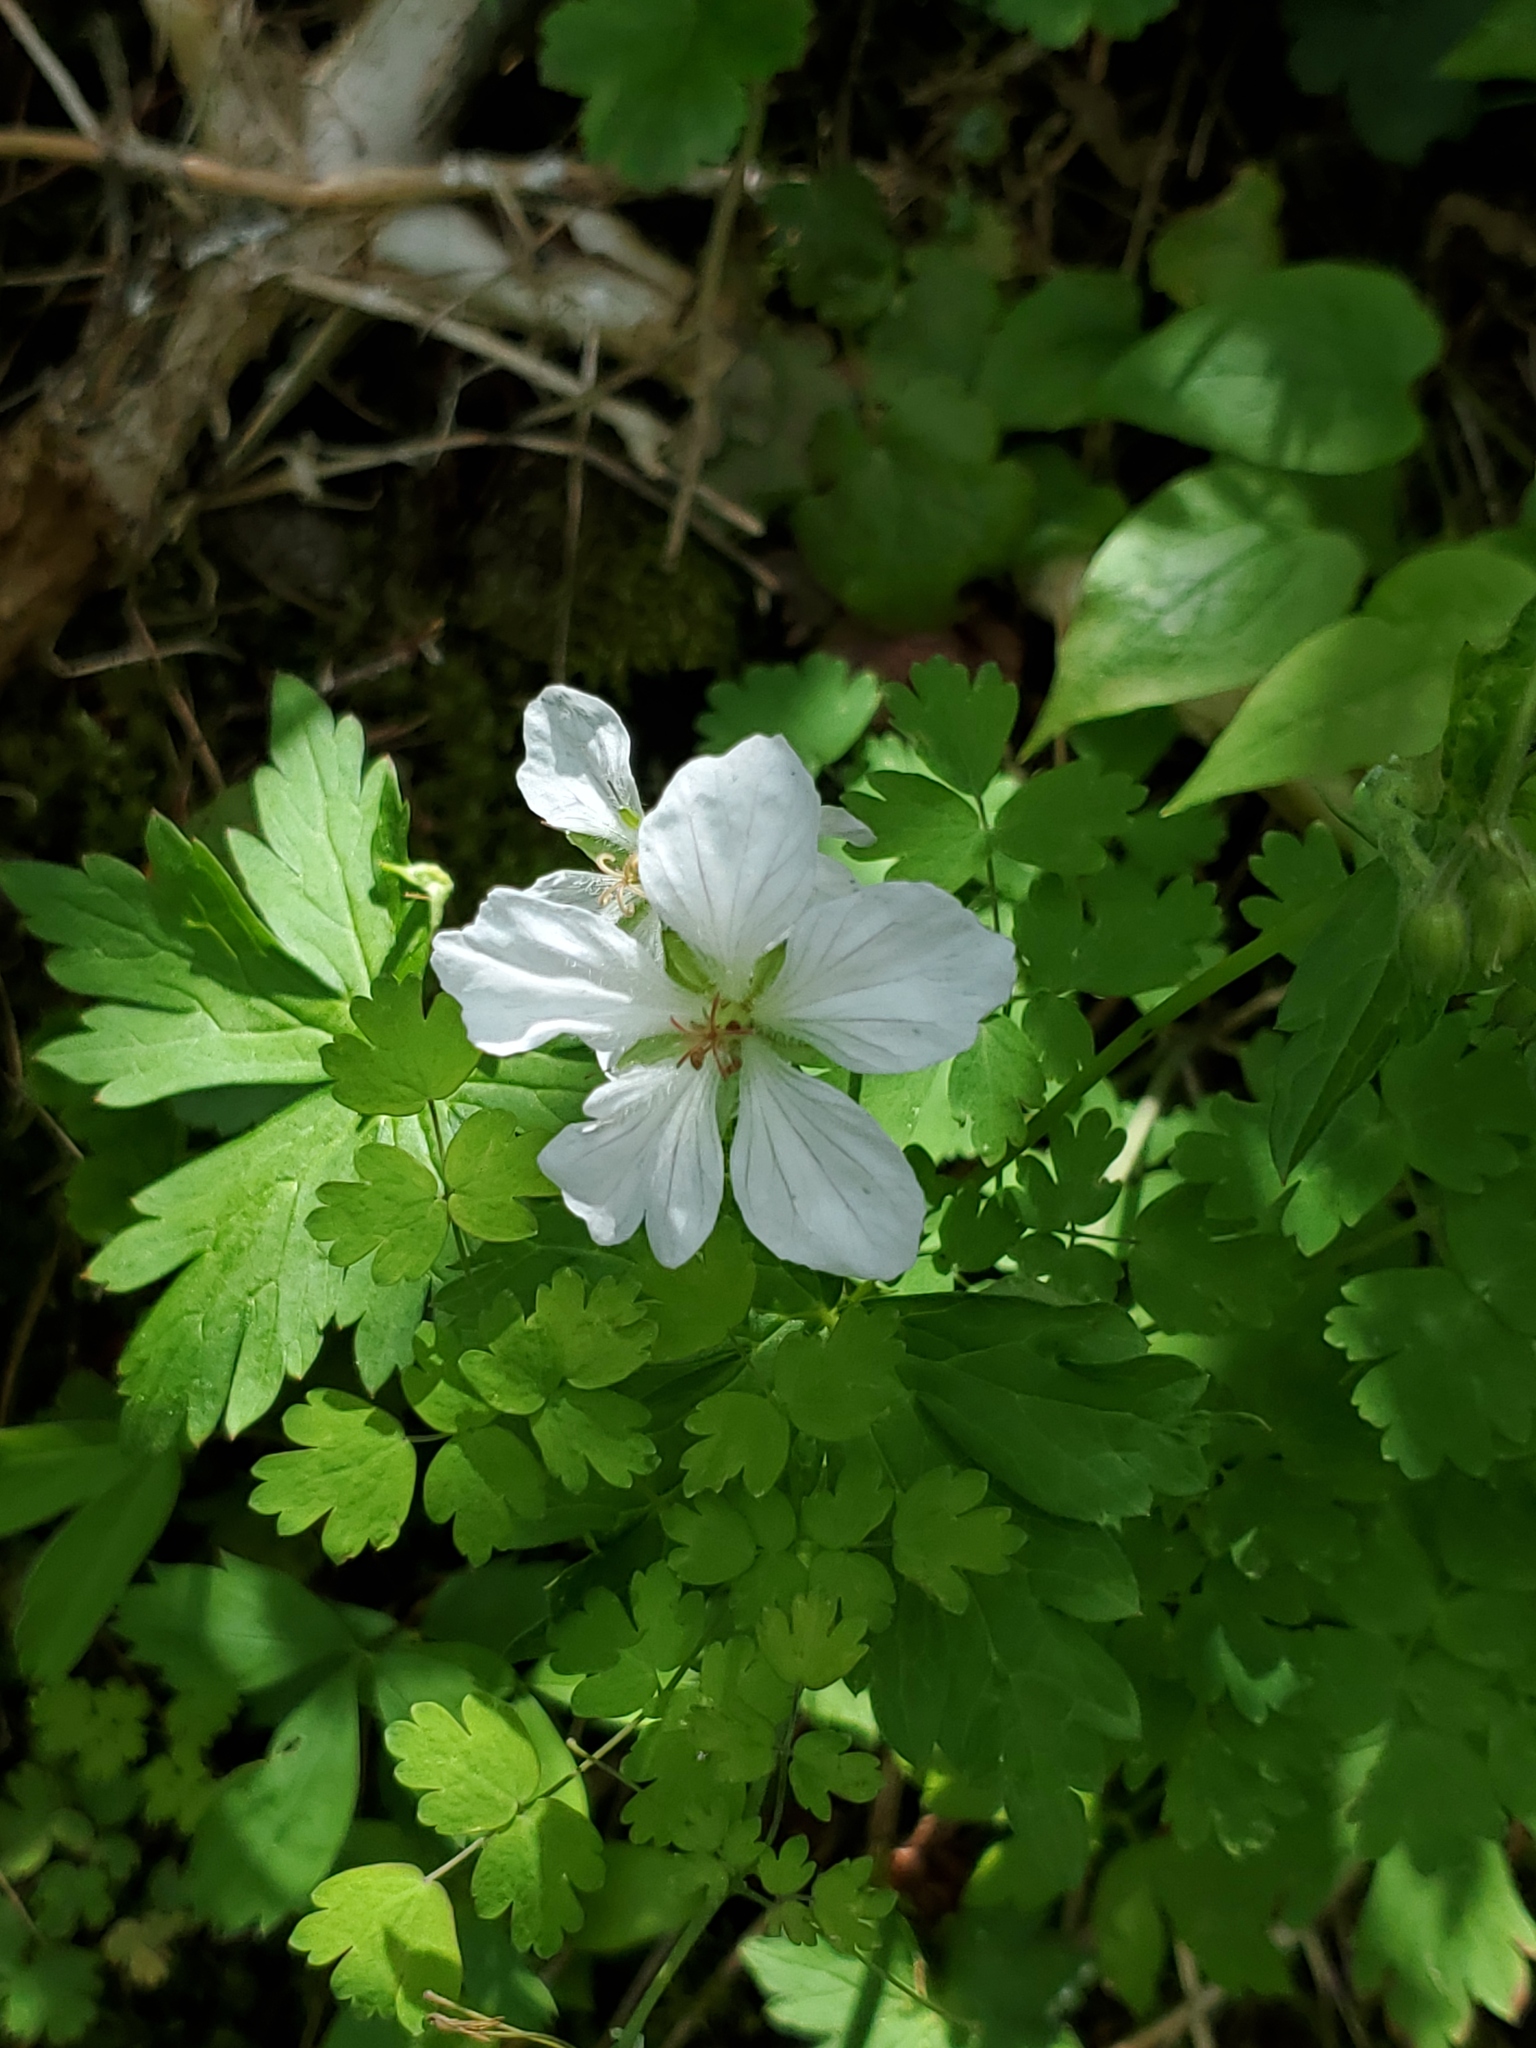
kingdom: Plantae
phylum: Tracheophyta
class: Magnoliopsida
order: Geraniales
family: Geraniaceae
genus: Geranium
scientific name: Geranium richardsonii
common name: Richardson's crane's-bill
